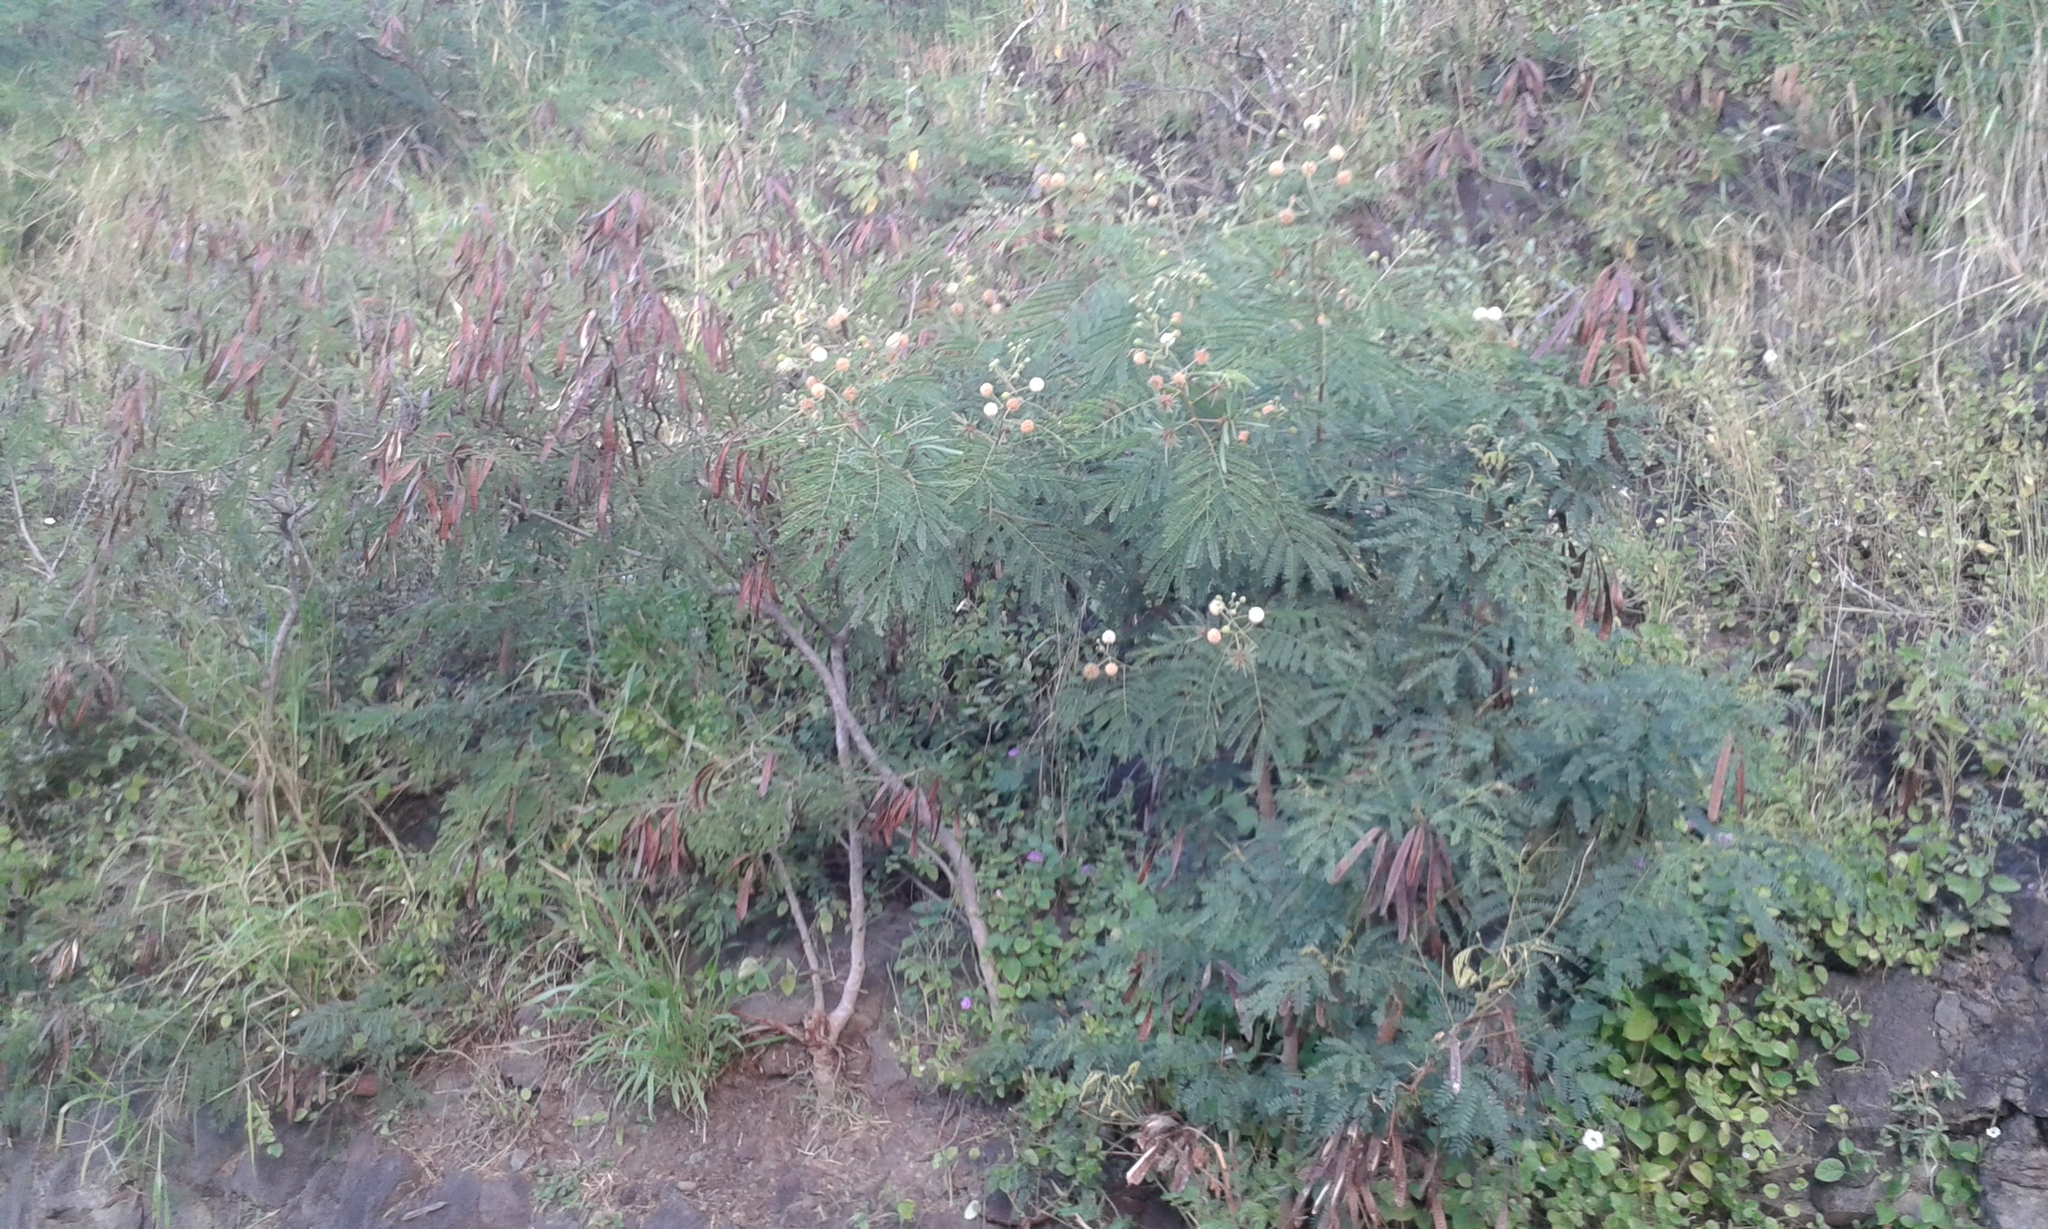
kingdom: Plantae
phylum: Tracheophyta
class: Magnoliopsida
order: Fabales
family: Fabaceae
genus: Leucaena
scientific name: Leucaena leucocephala
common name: White leadtree
